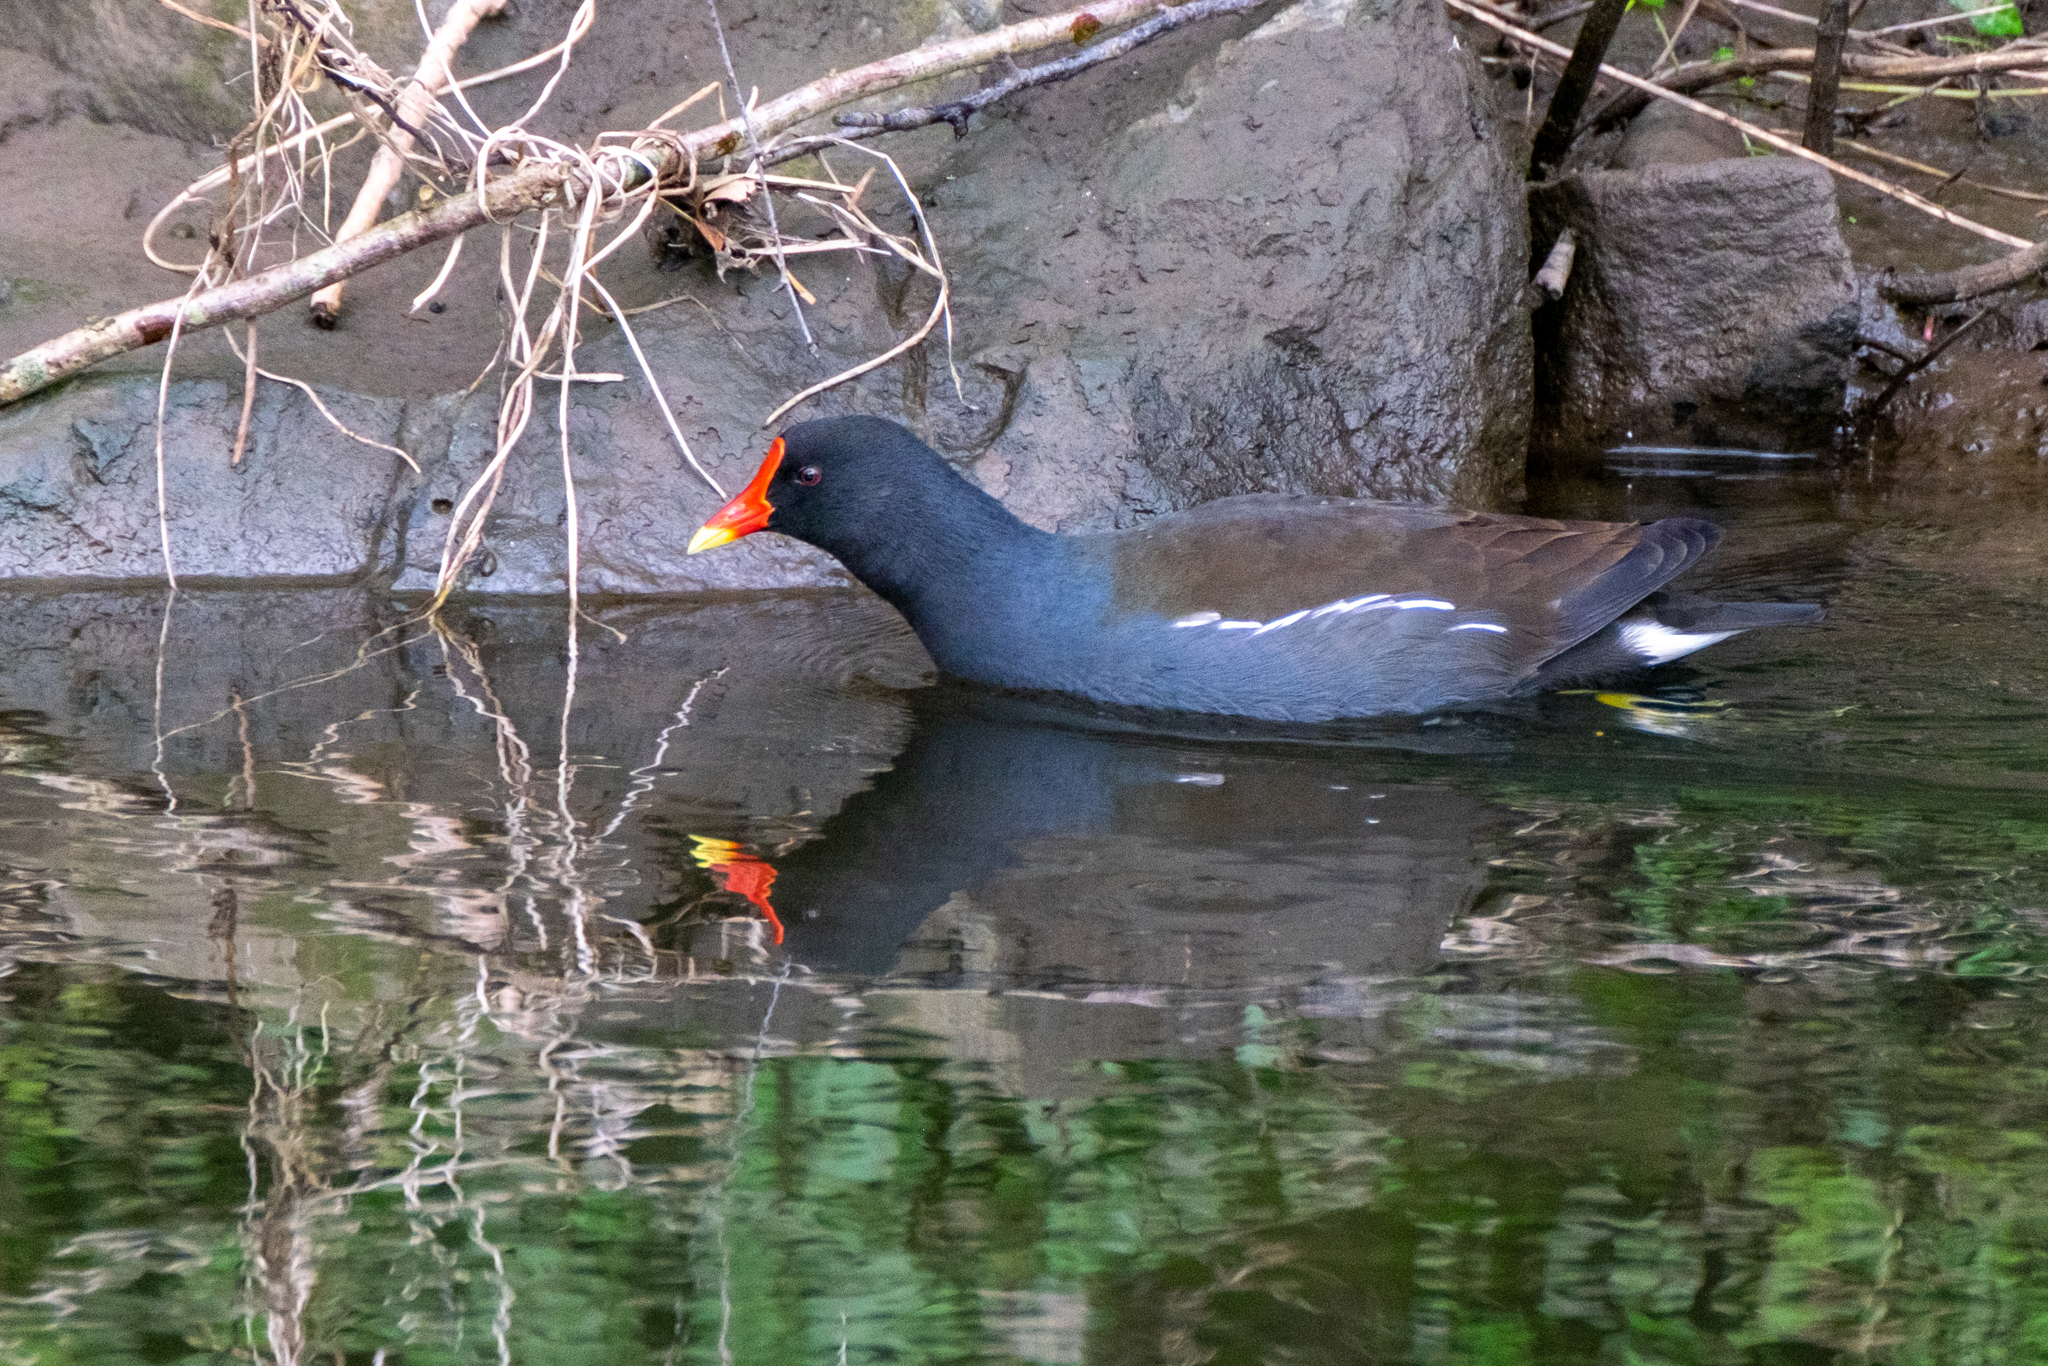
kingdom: Animalia
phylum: Chordata
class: Aves
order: Gruiformes
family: Rallidae
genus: Gallinula
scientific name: Gallinula chloropus
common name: Common moorhen
